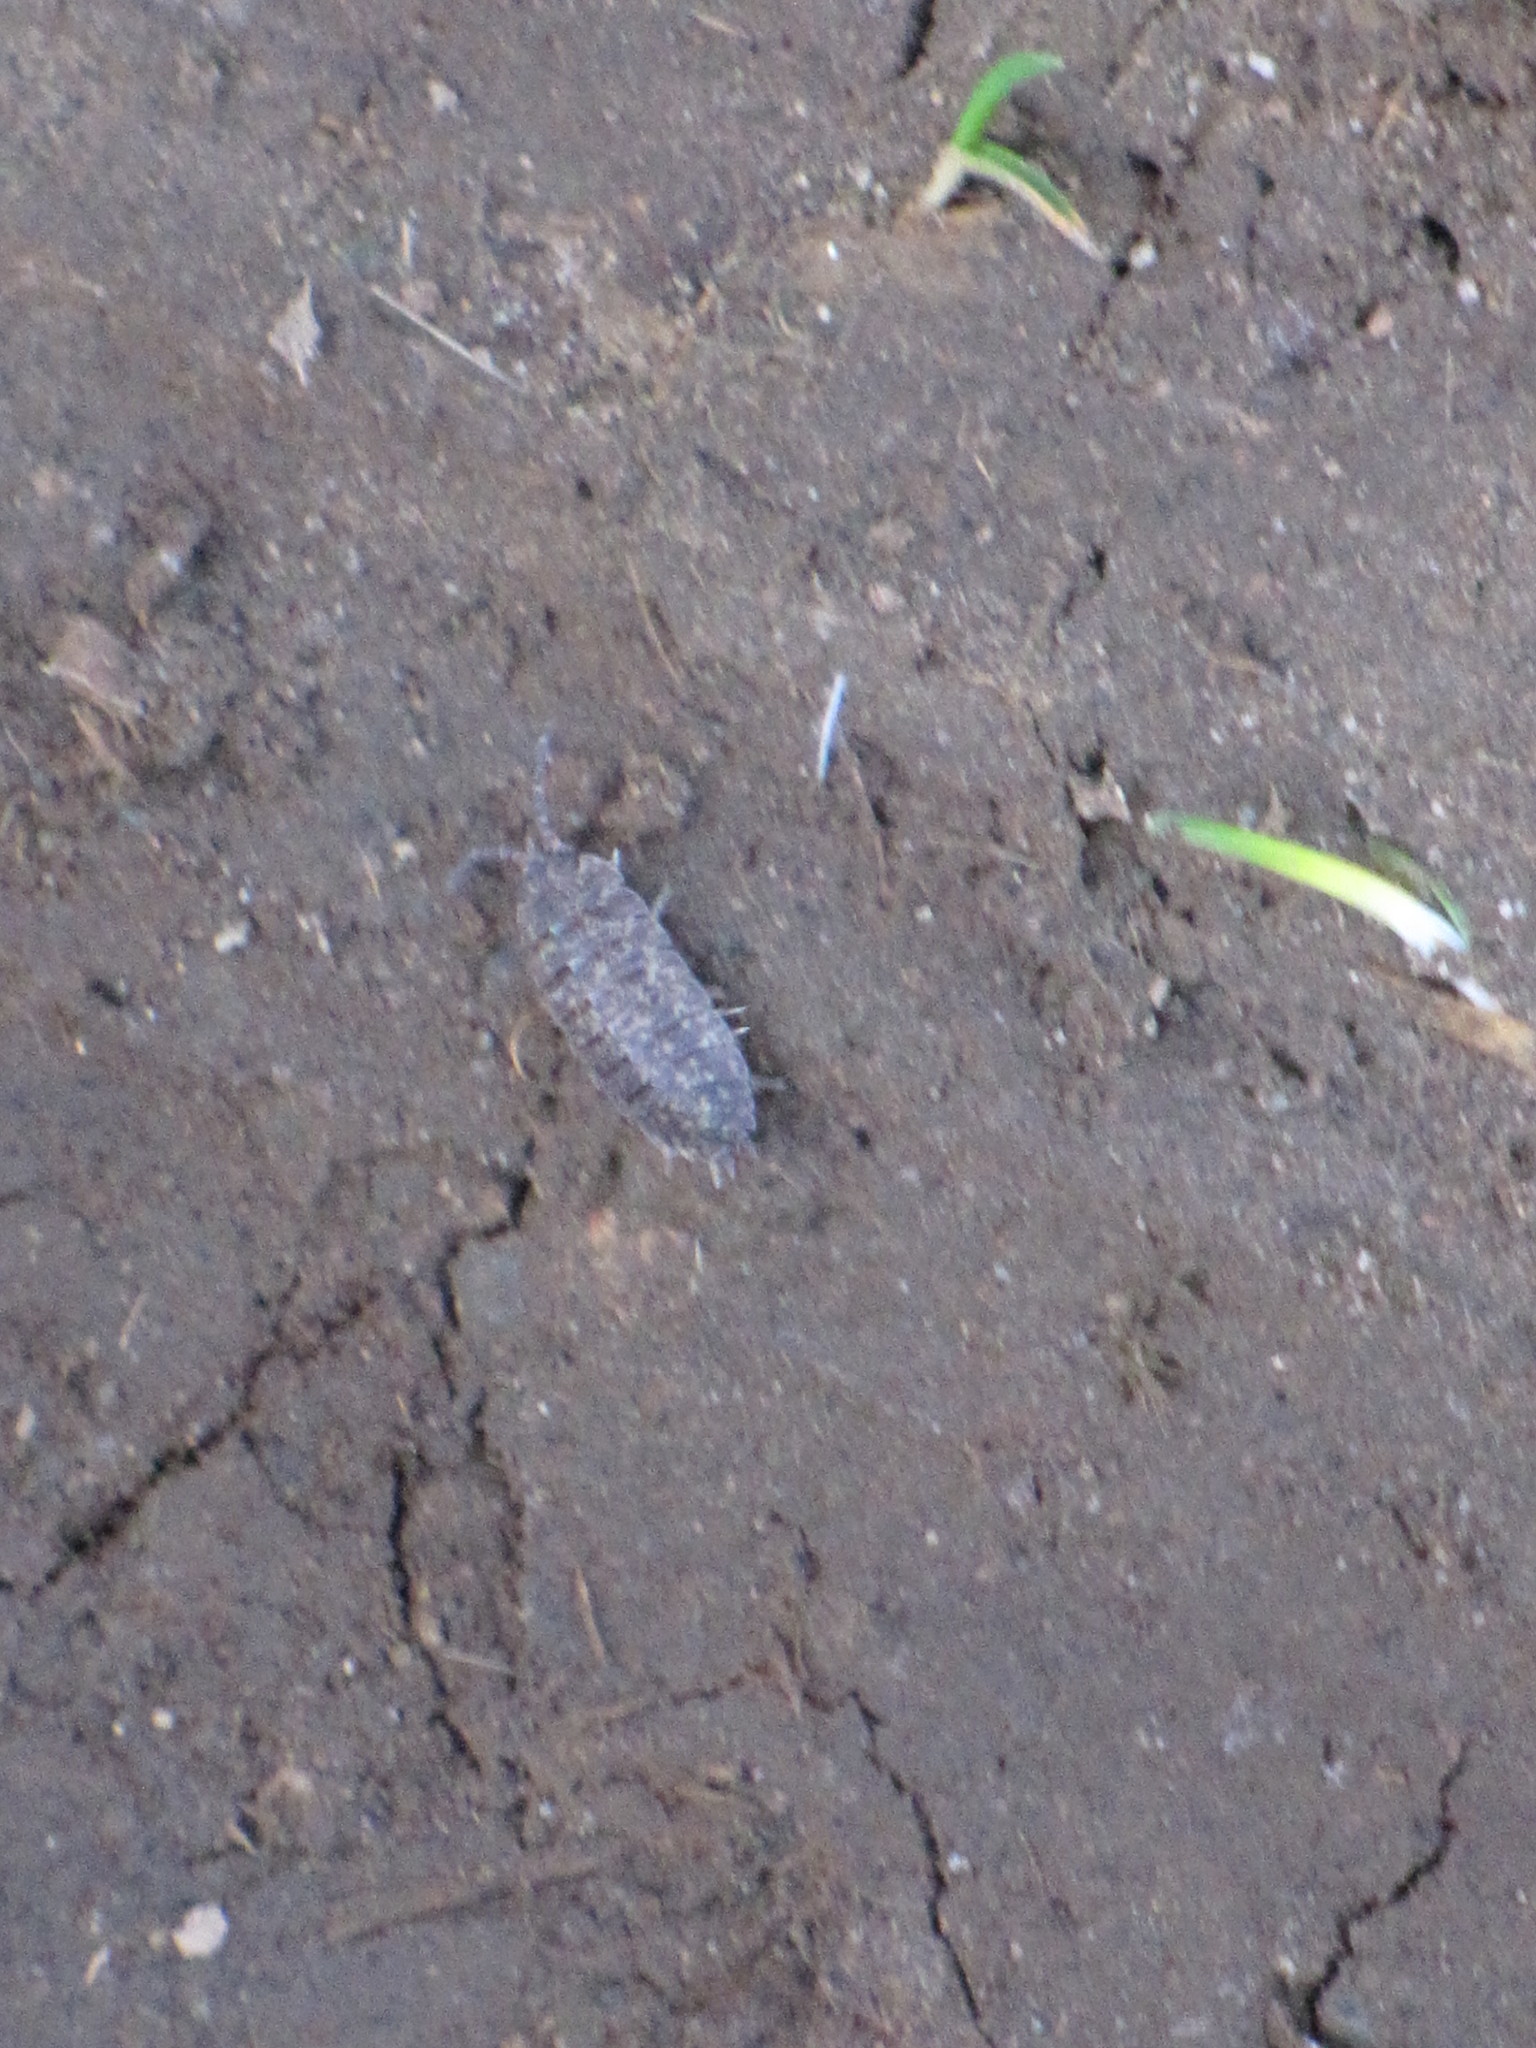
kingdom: Animalia
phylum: Arthropoda
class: Malacostraca
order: Isopoda
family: Porcellionidae
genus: Porcellio
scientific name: Porcellio scaber
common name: Common rough woodlouse
